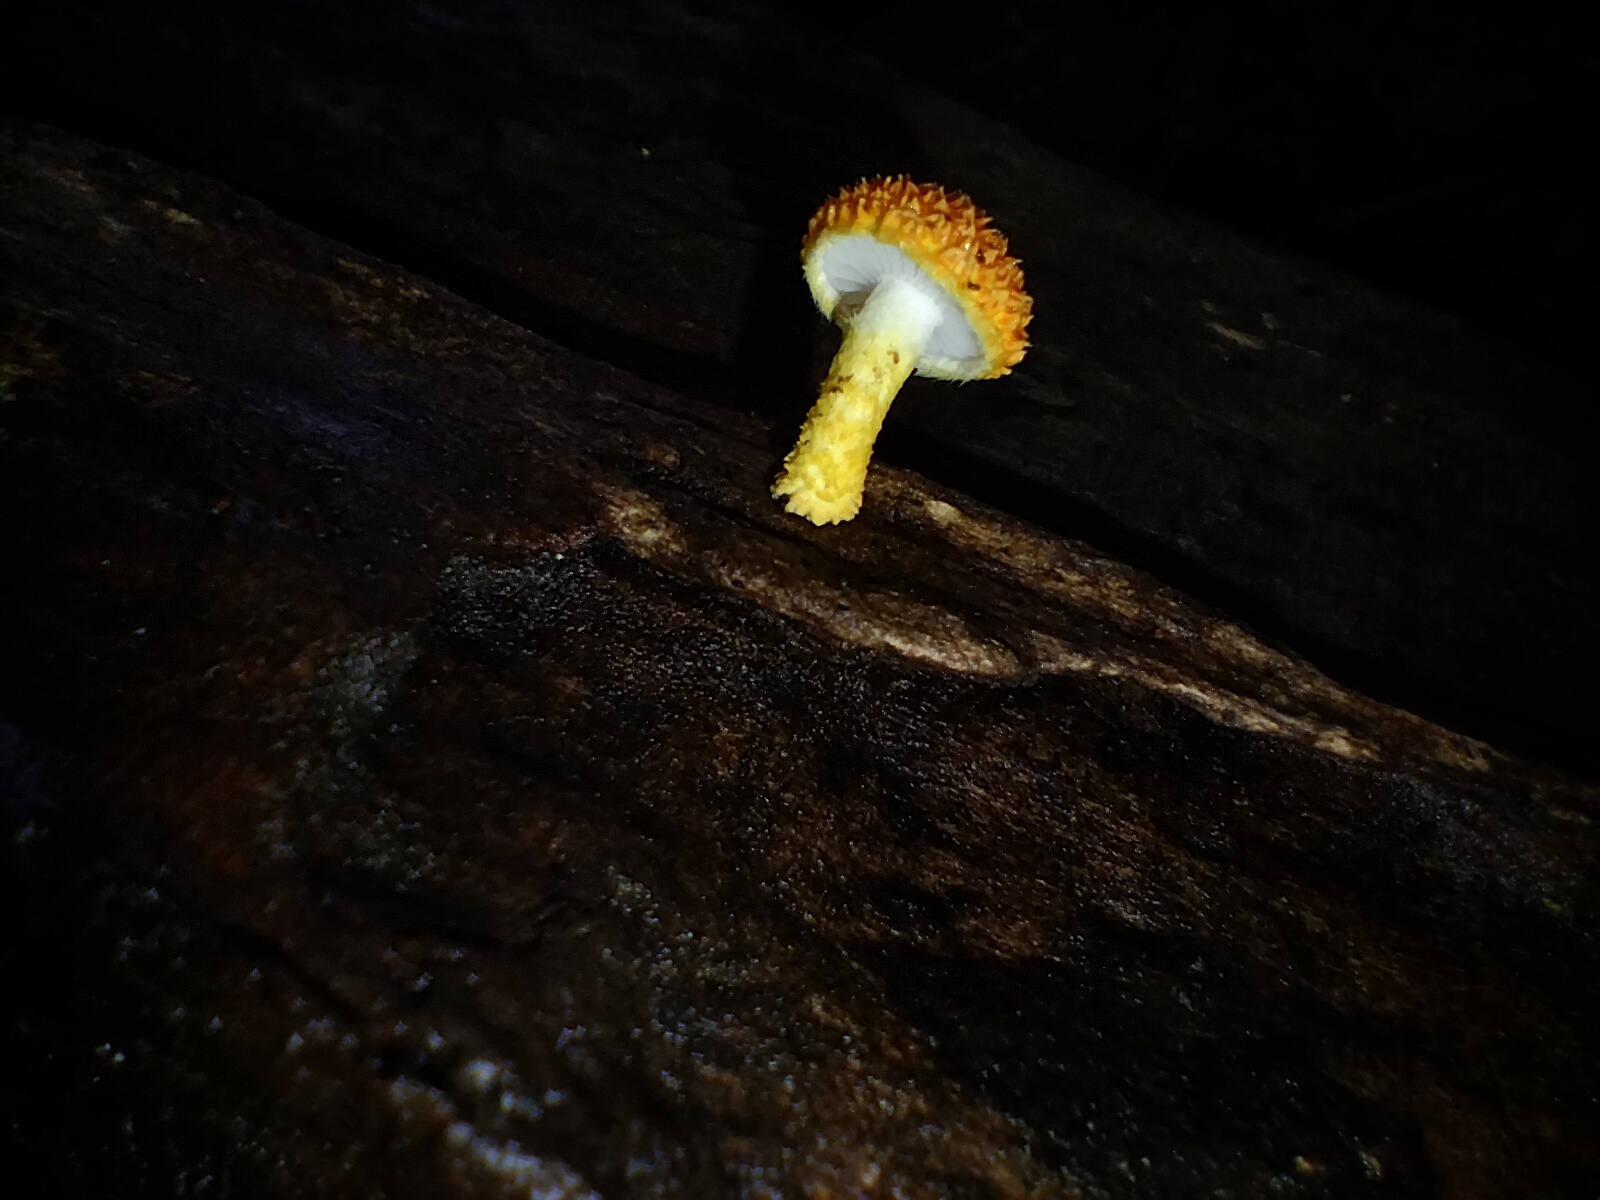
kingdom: Fungi
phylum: Basidiomycota
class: Agaricomycetes
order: Agaricales
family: Physalacriaceae
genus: Cyptotrama
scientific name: Cyptotrama asprata
